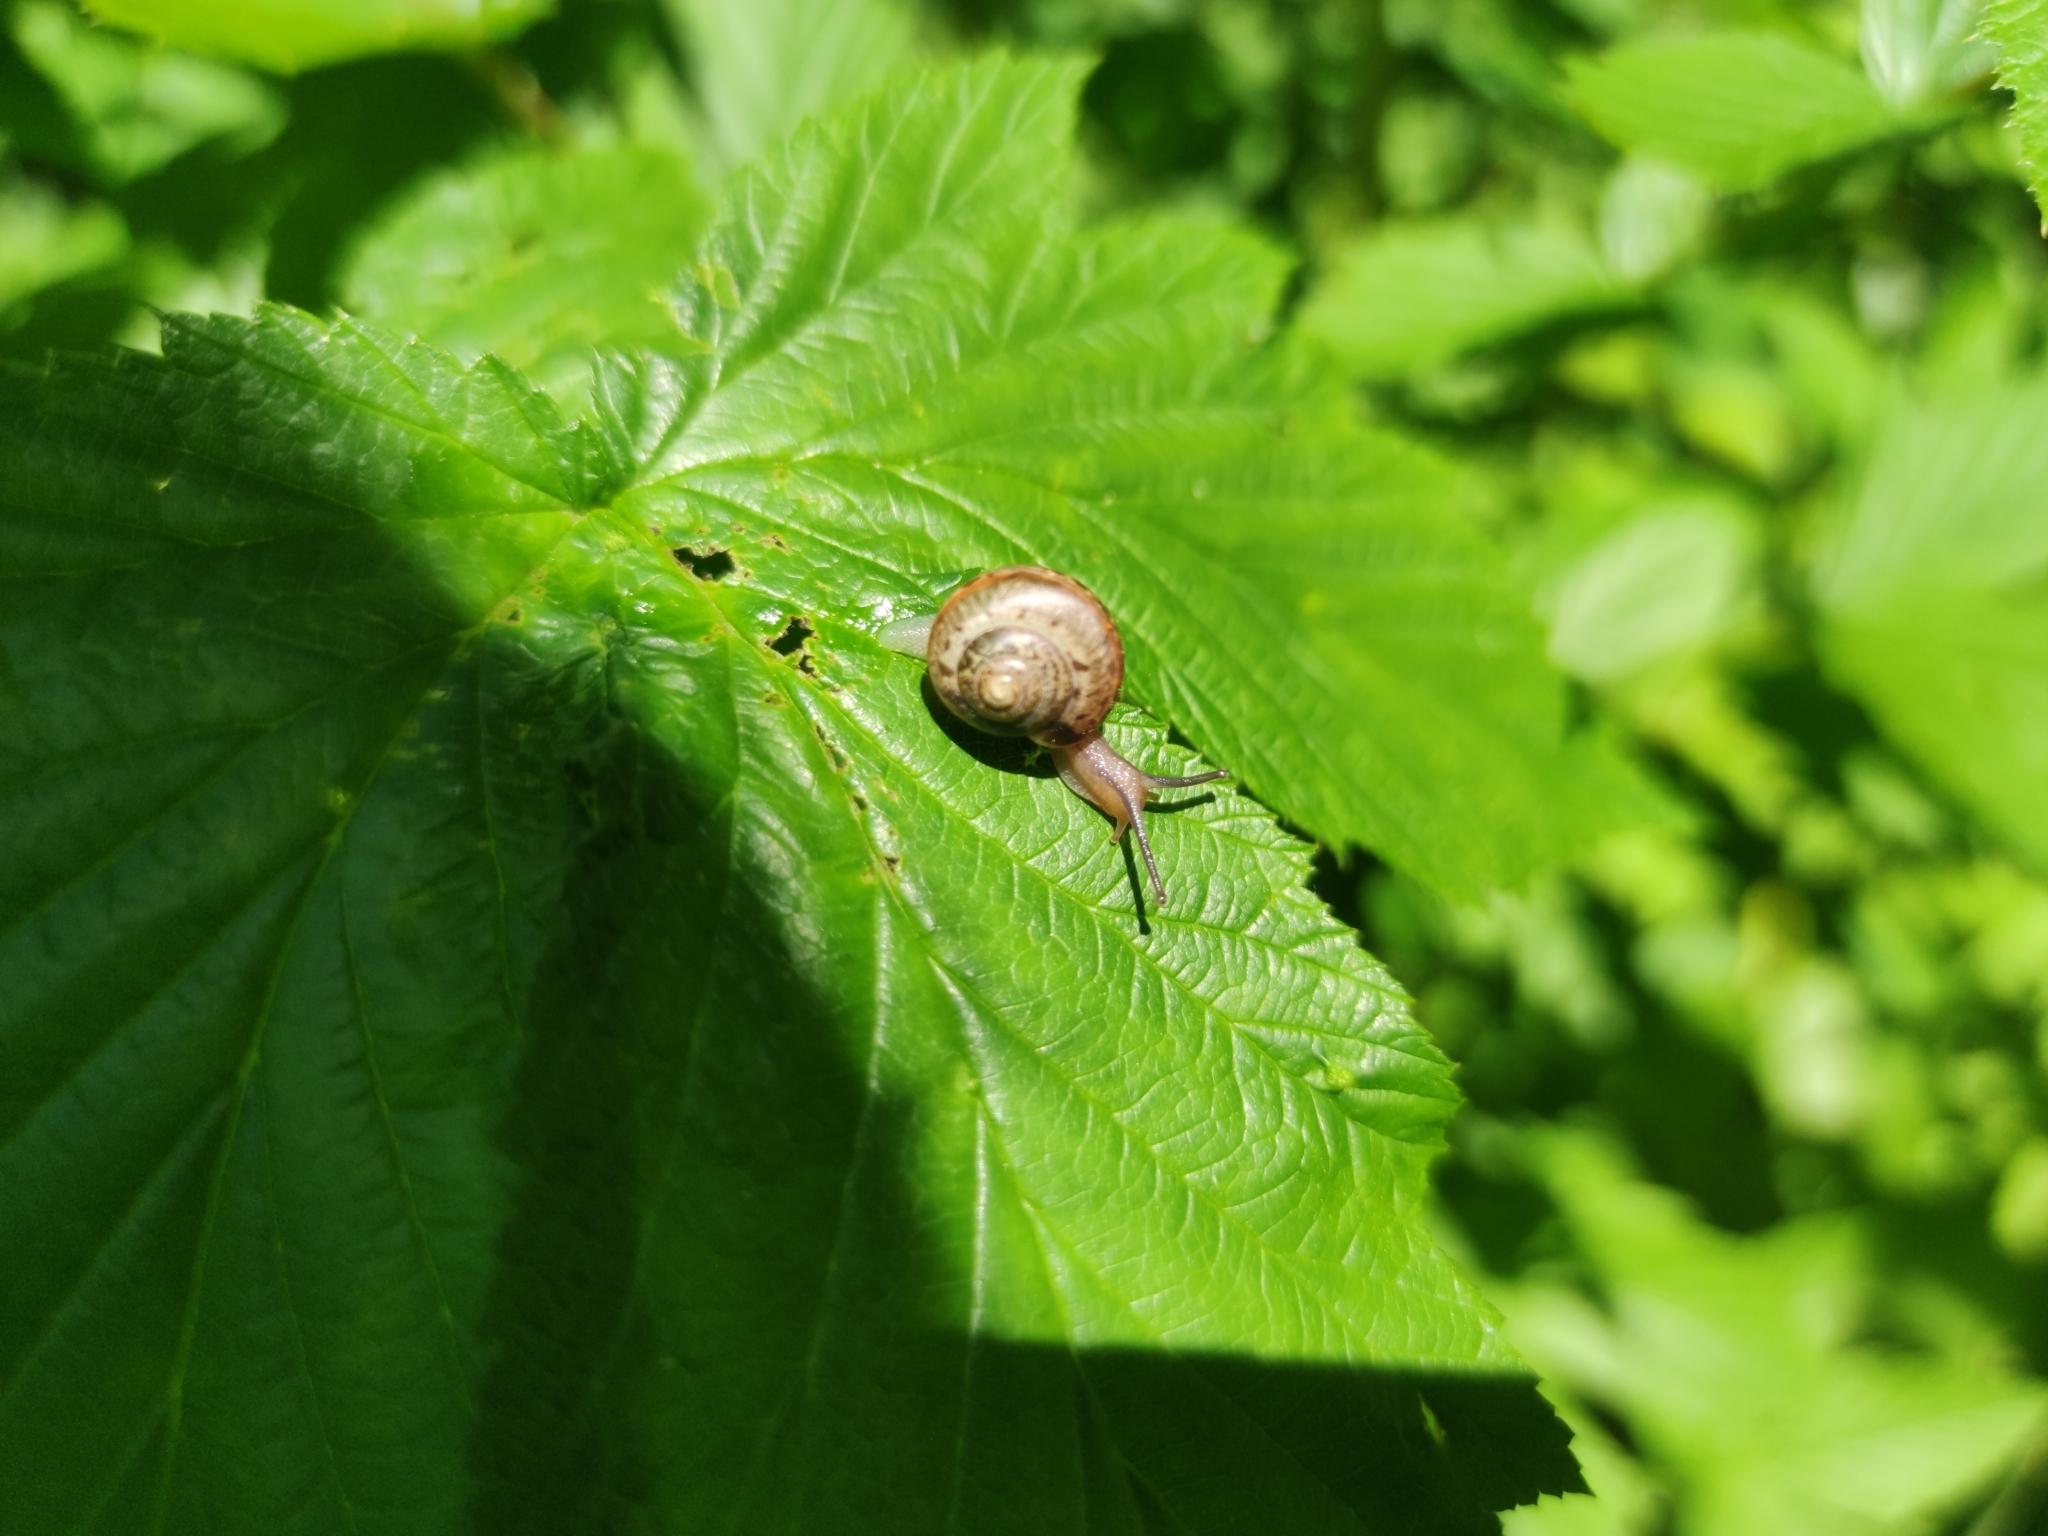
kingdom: Animalia
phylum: Mollusca
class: Gastropoda
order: Stylommatophora
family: Camaenidae
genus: Fruticicola
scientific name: Fruticicola fruticum
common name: Bush snail
